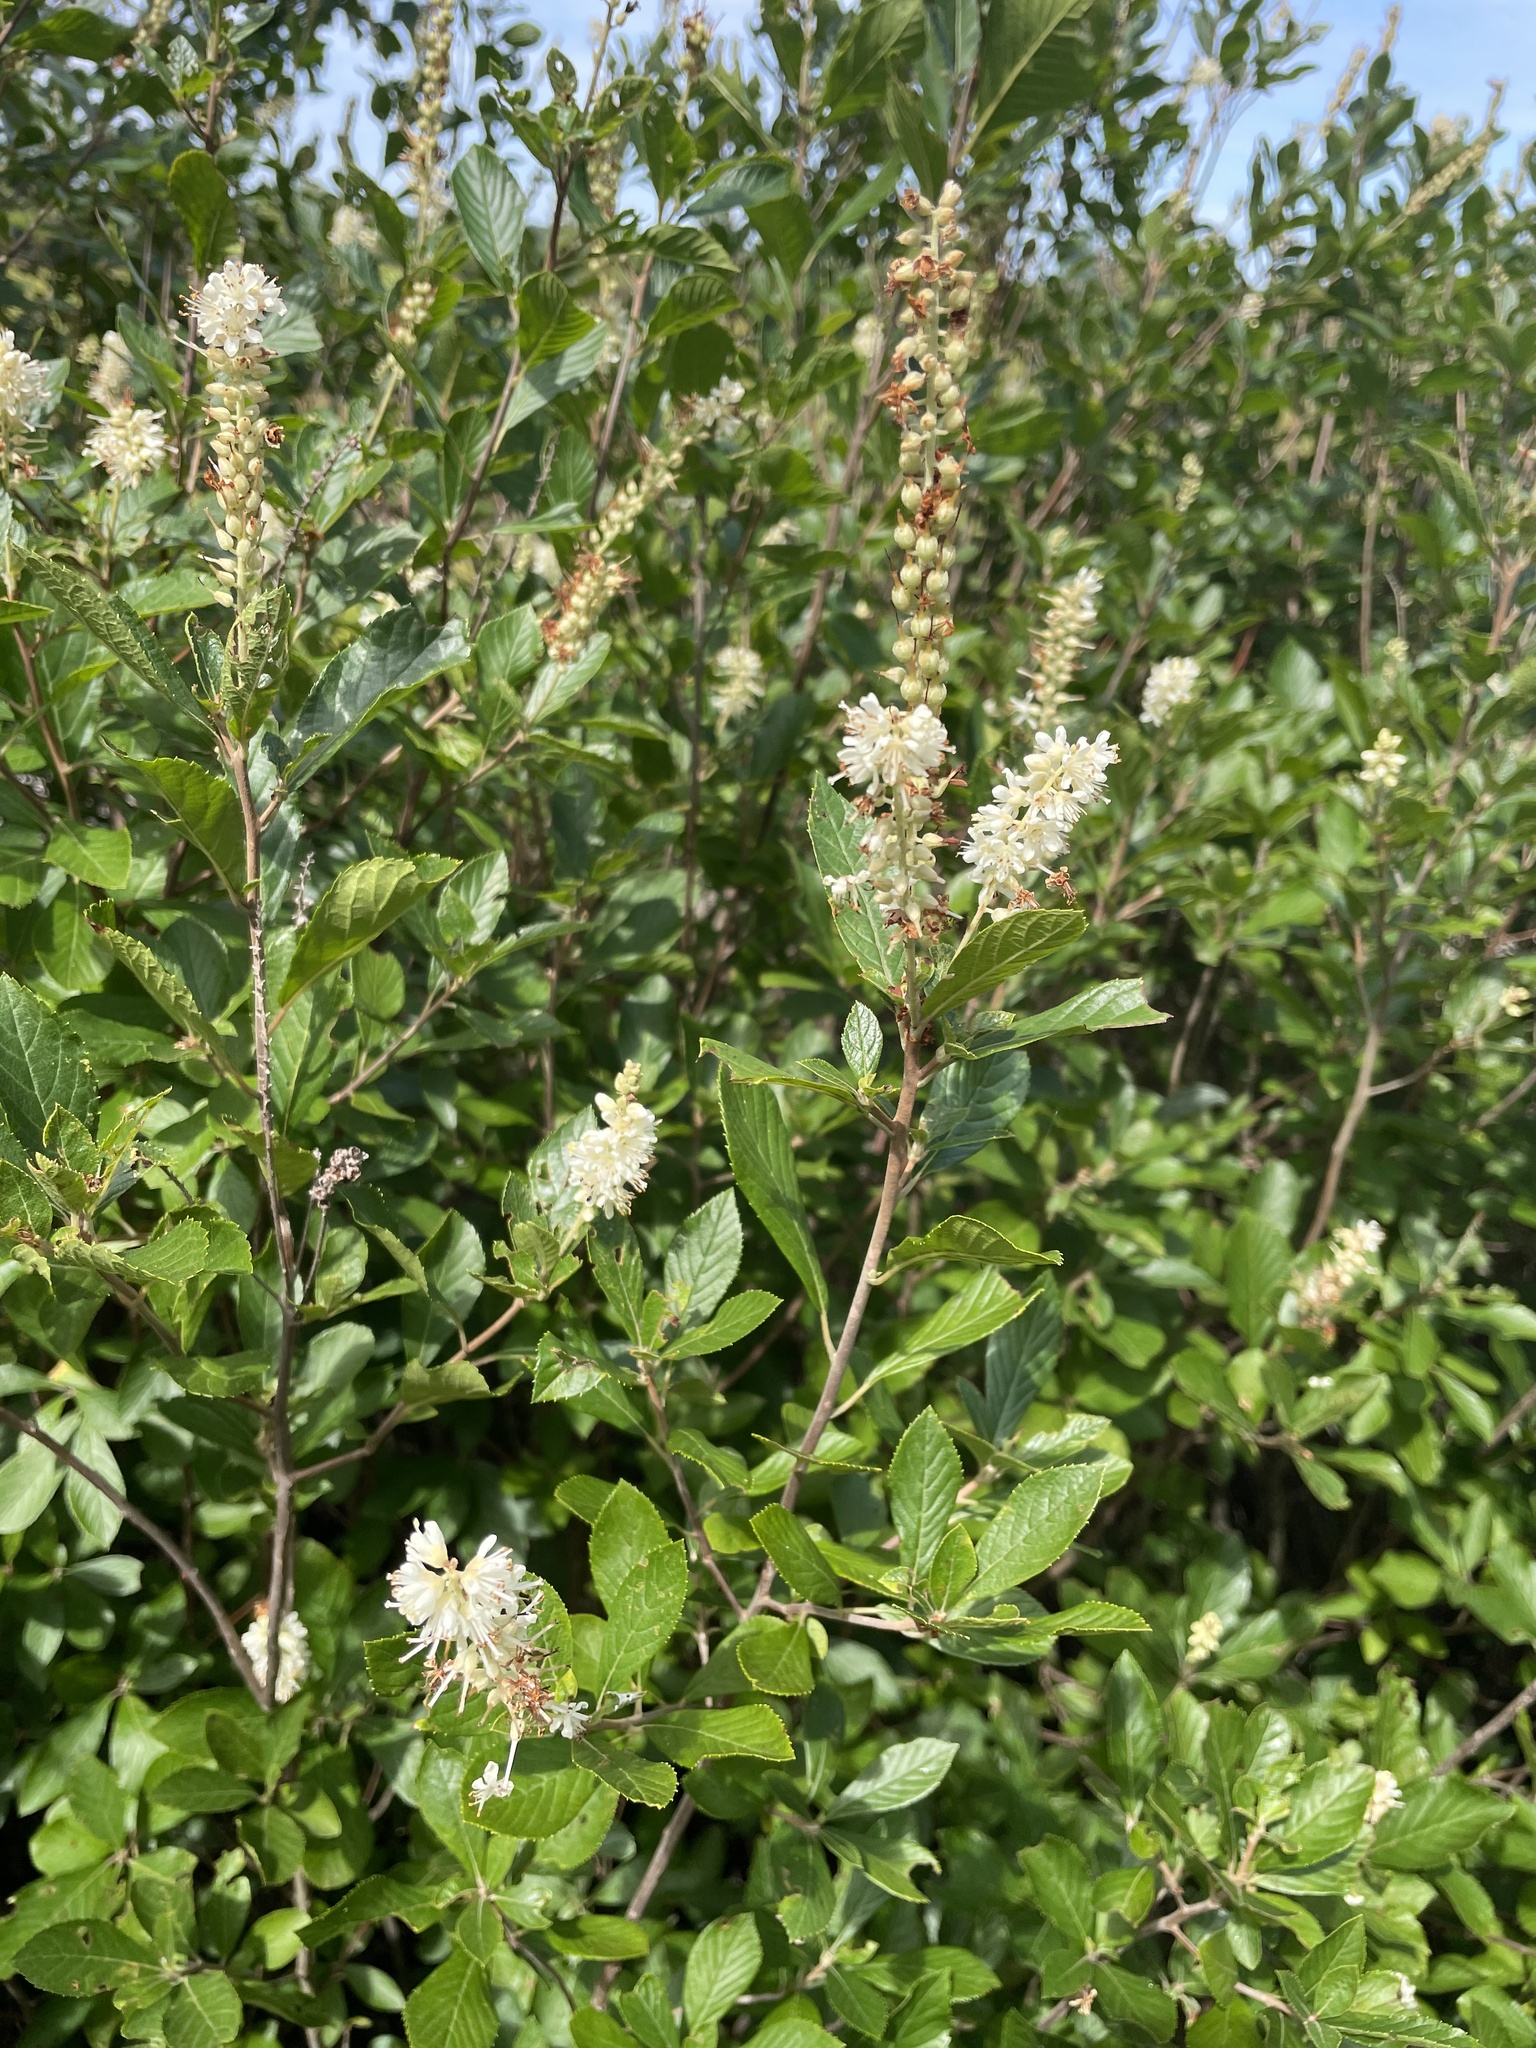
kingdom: Plantae
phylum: Tracheophyta
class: Magnoliopsida
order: Ericales
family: Clethraceae
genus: Clethra
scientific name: Clethra alnifolia
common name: Sweet pepperbush
